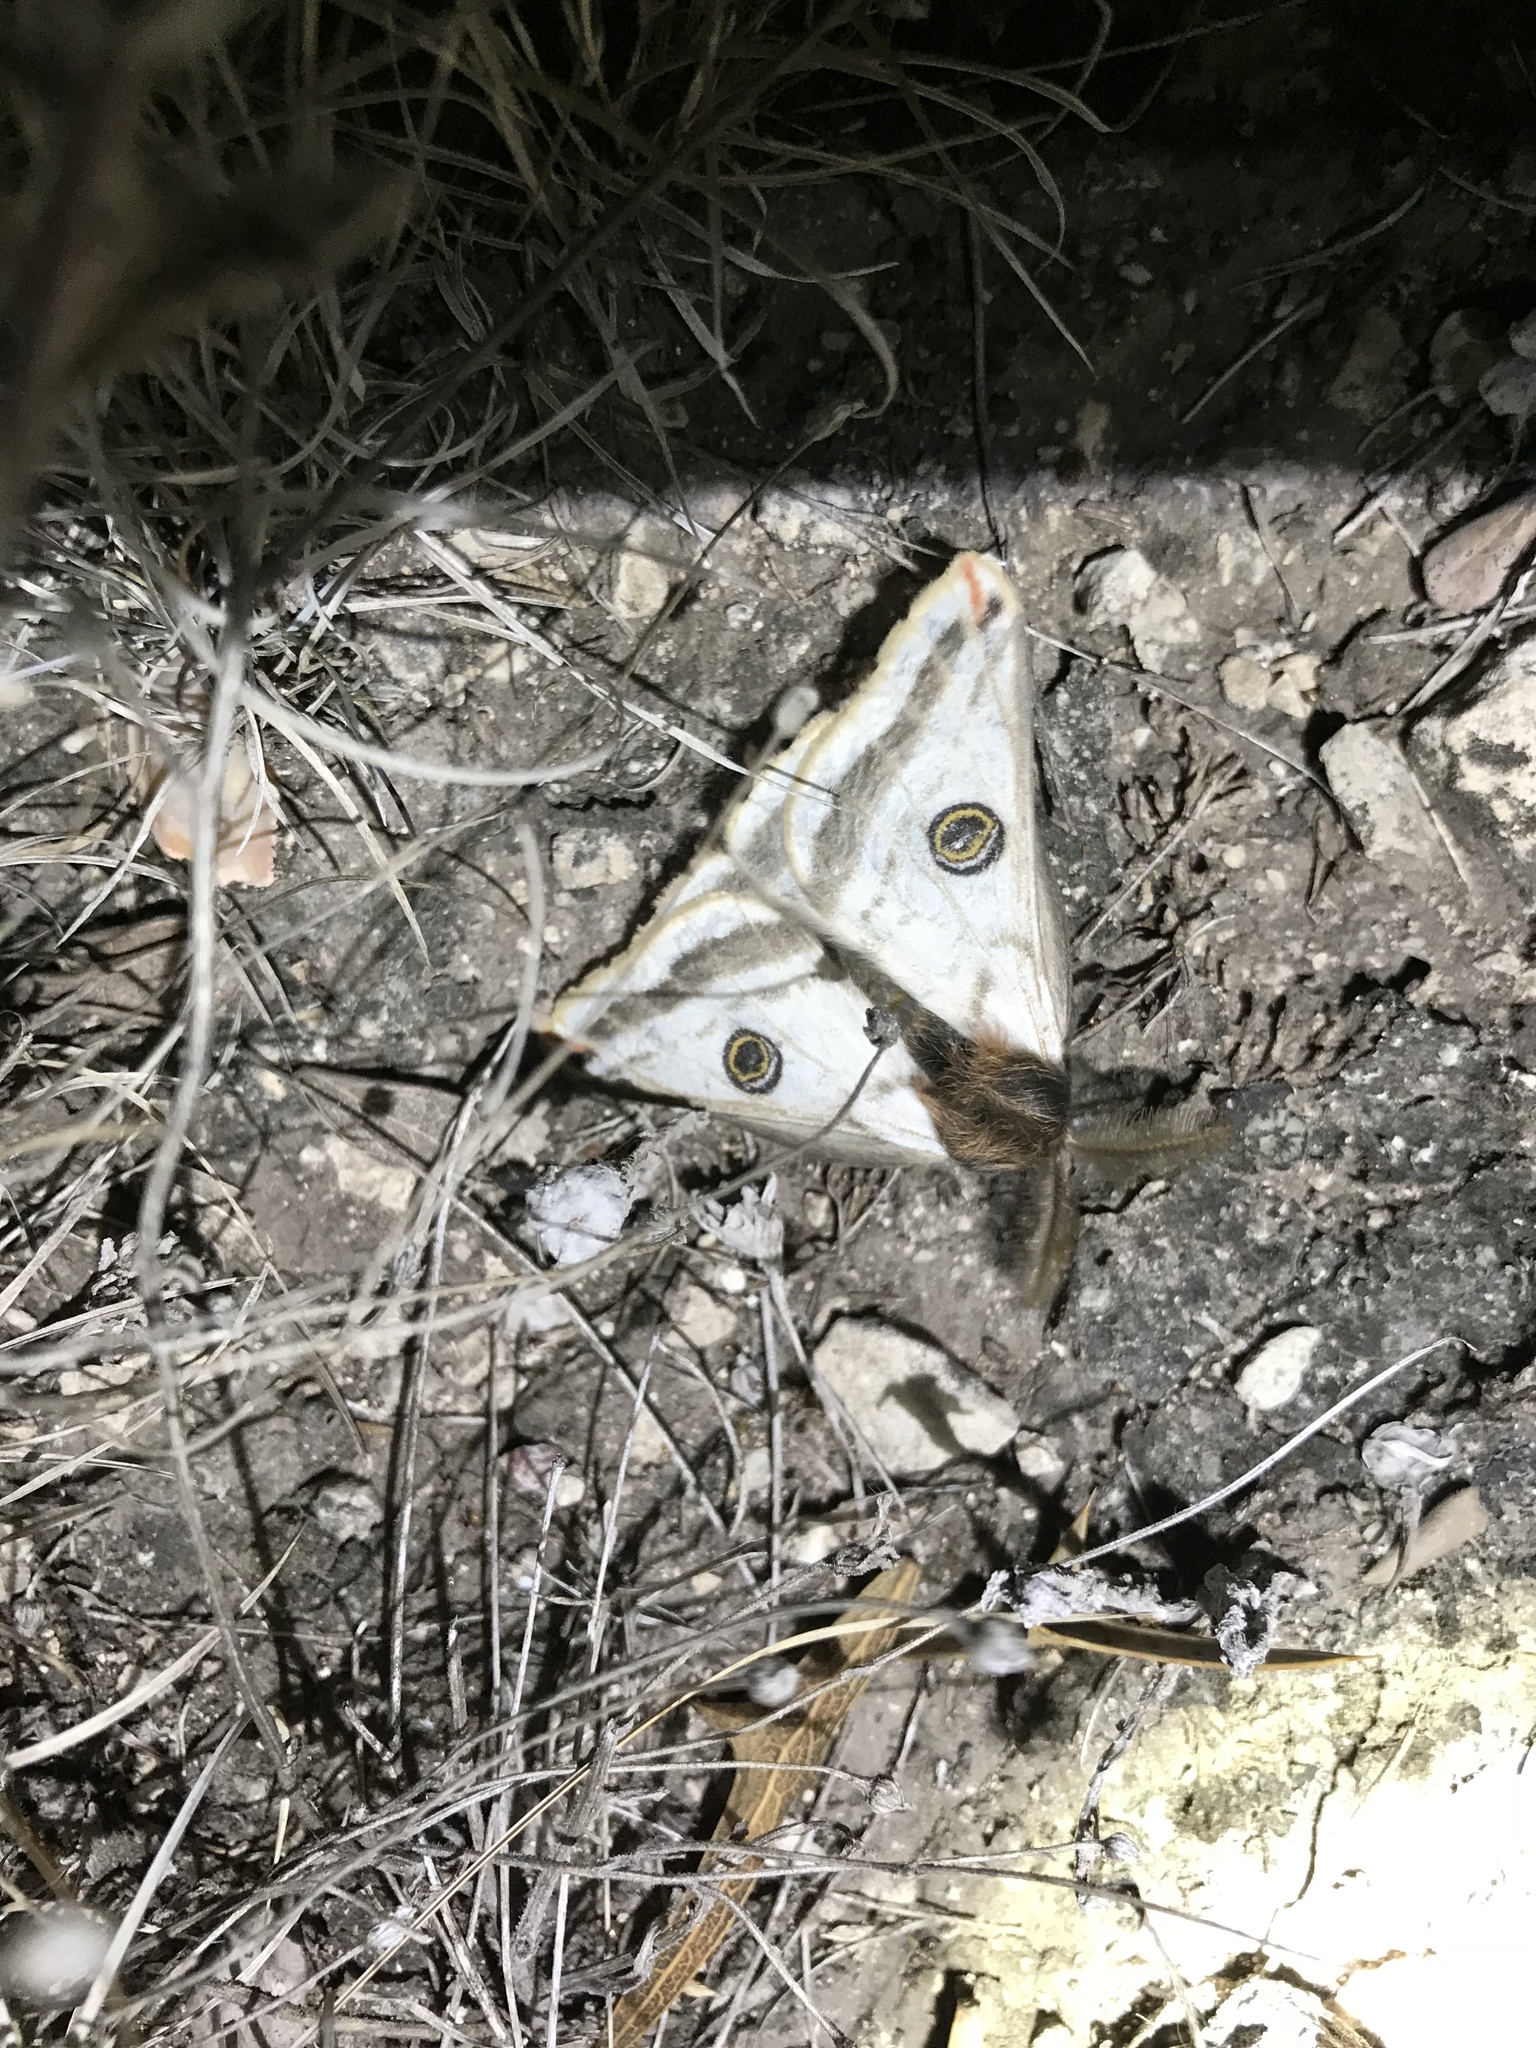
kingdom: Animalia
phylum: Arthropoda
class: Insecta
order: Lepidoptera
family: Saturniidae
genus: Agapema
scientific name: Agapema
